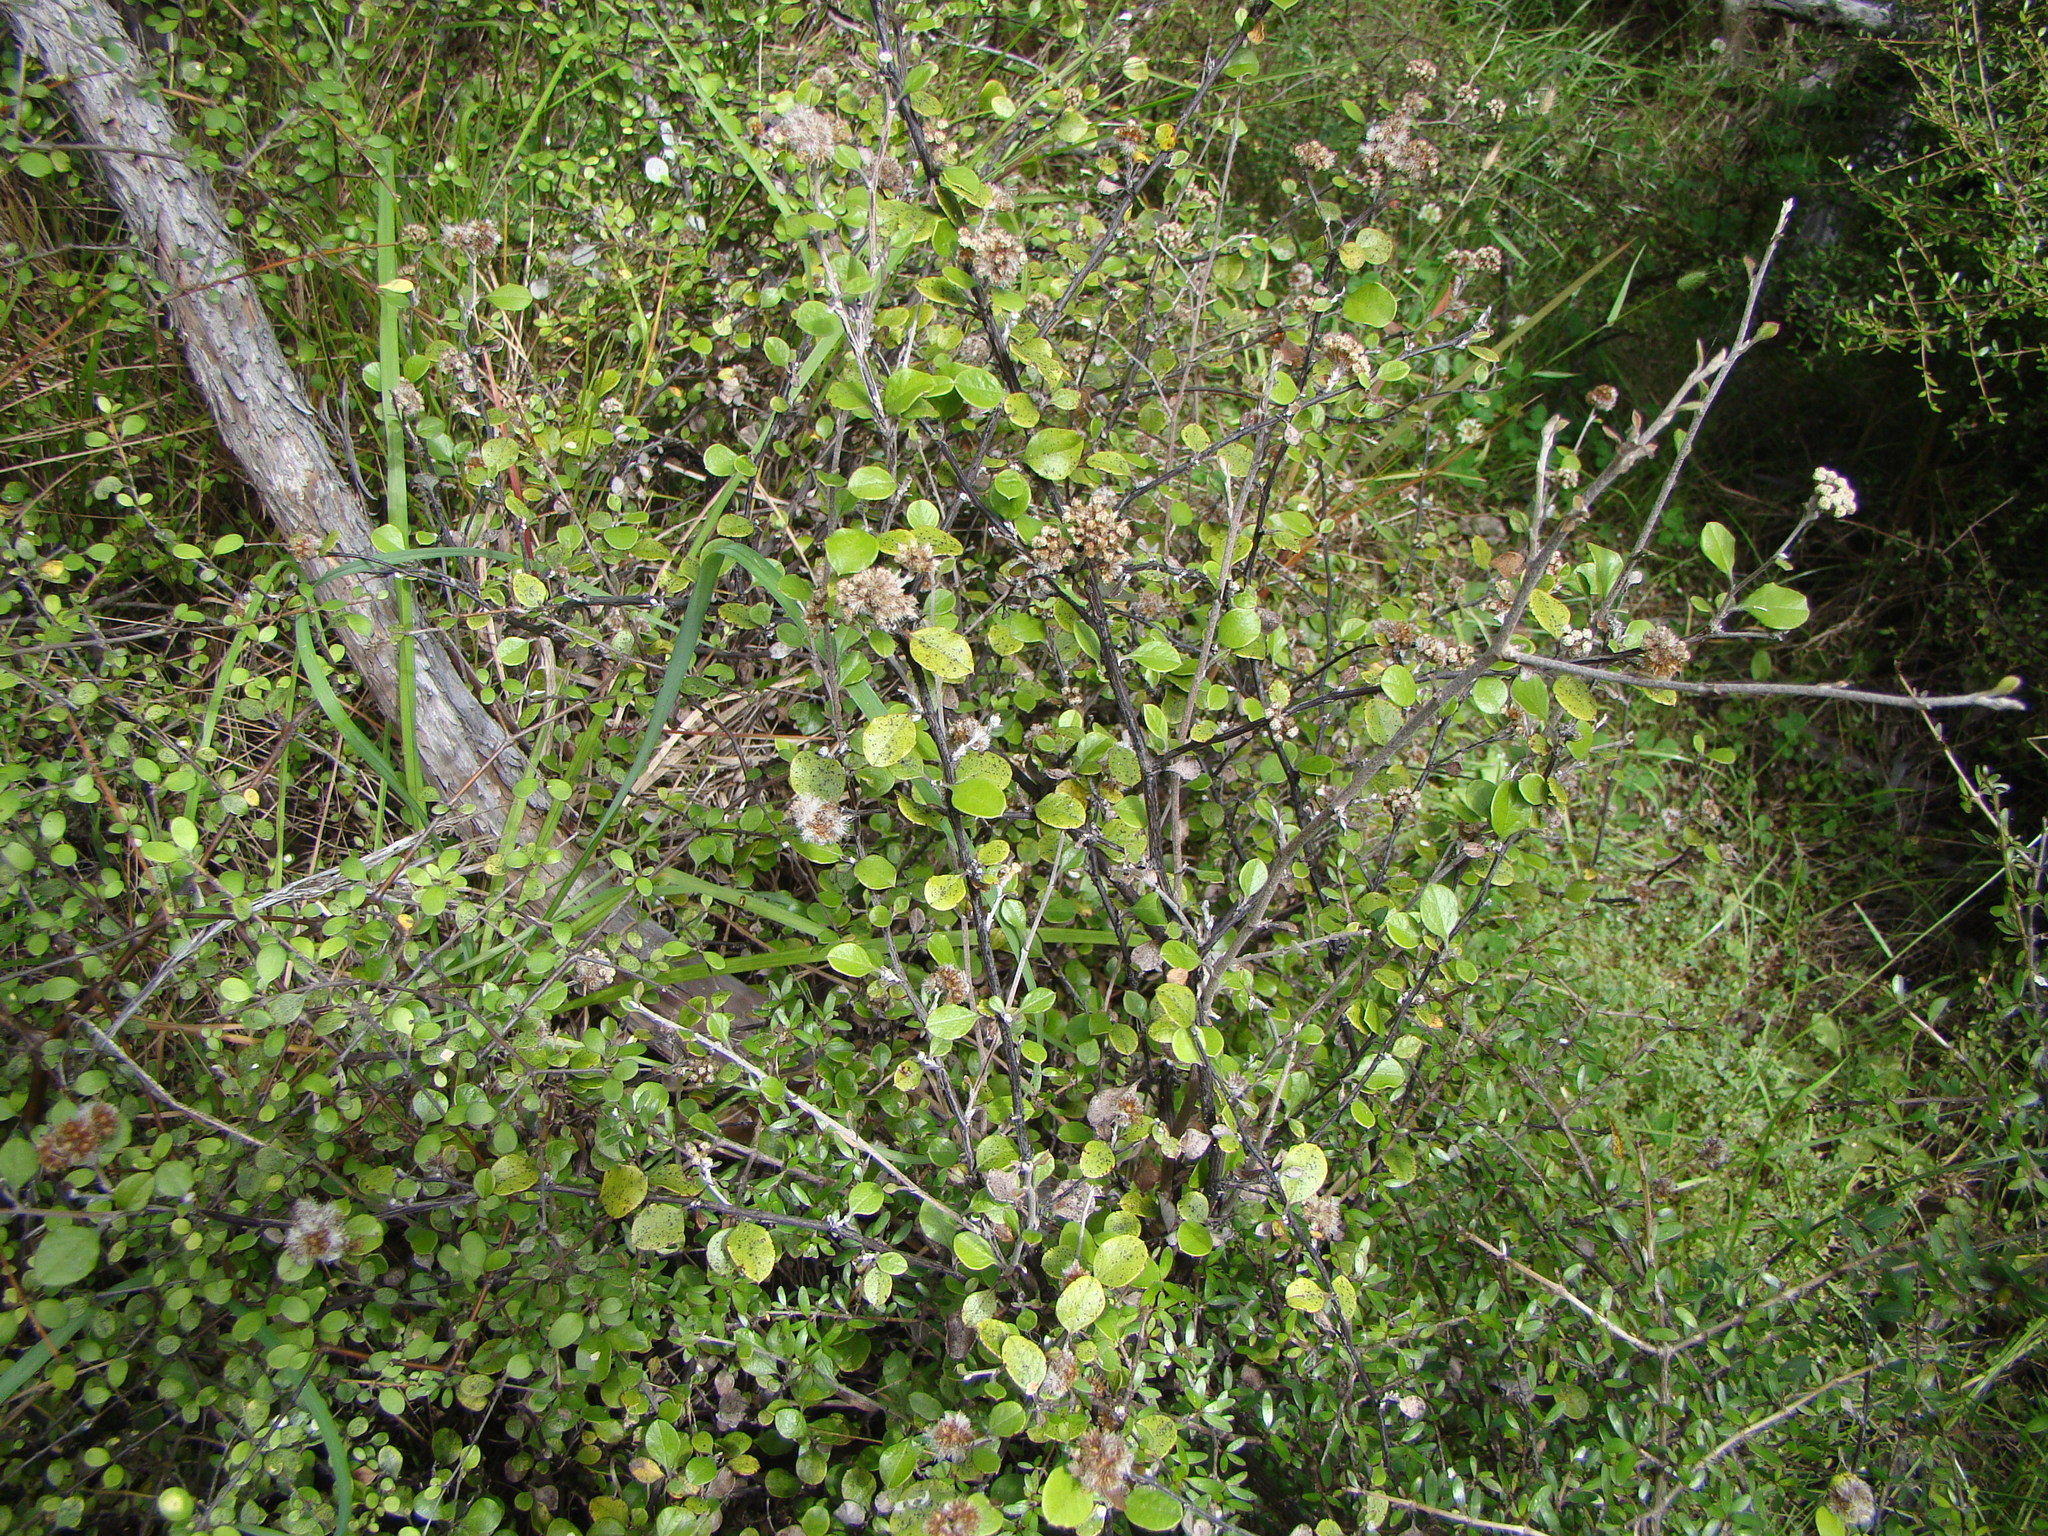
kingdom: Plantae
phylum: Tracheophyta
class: Magnoliopsida
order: Asterales
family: Asteraceae
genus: Ozothamnus
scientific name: Ozothamnus glomeratus
